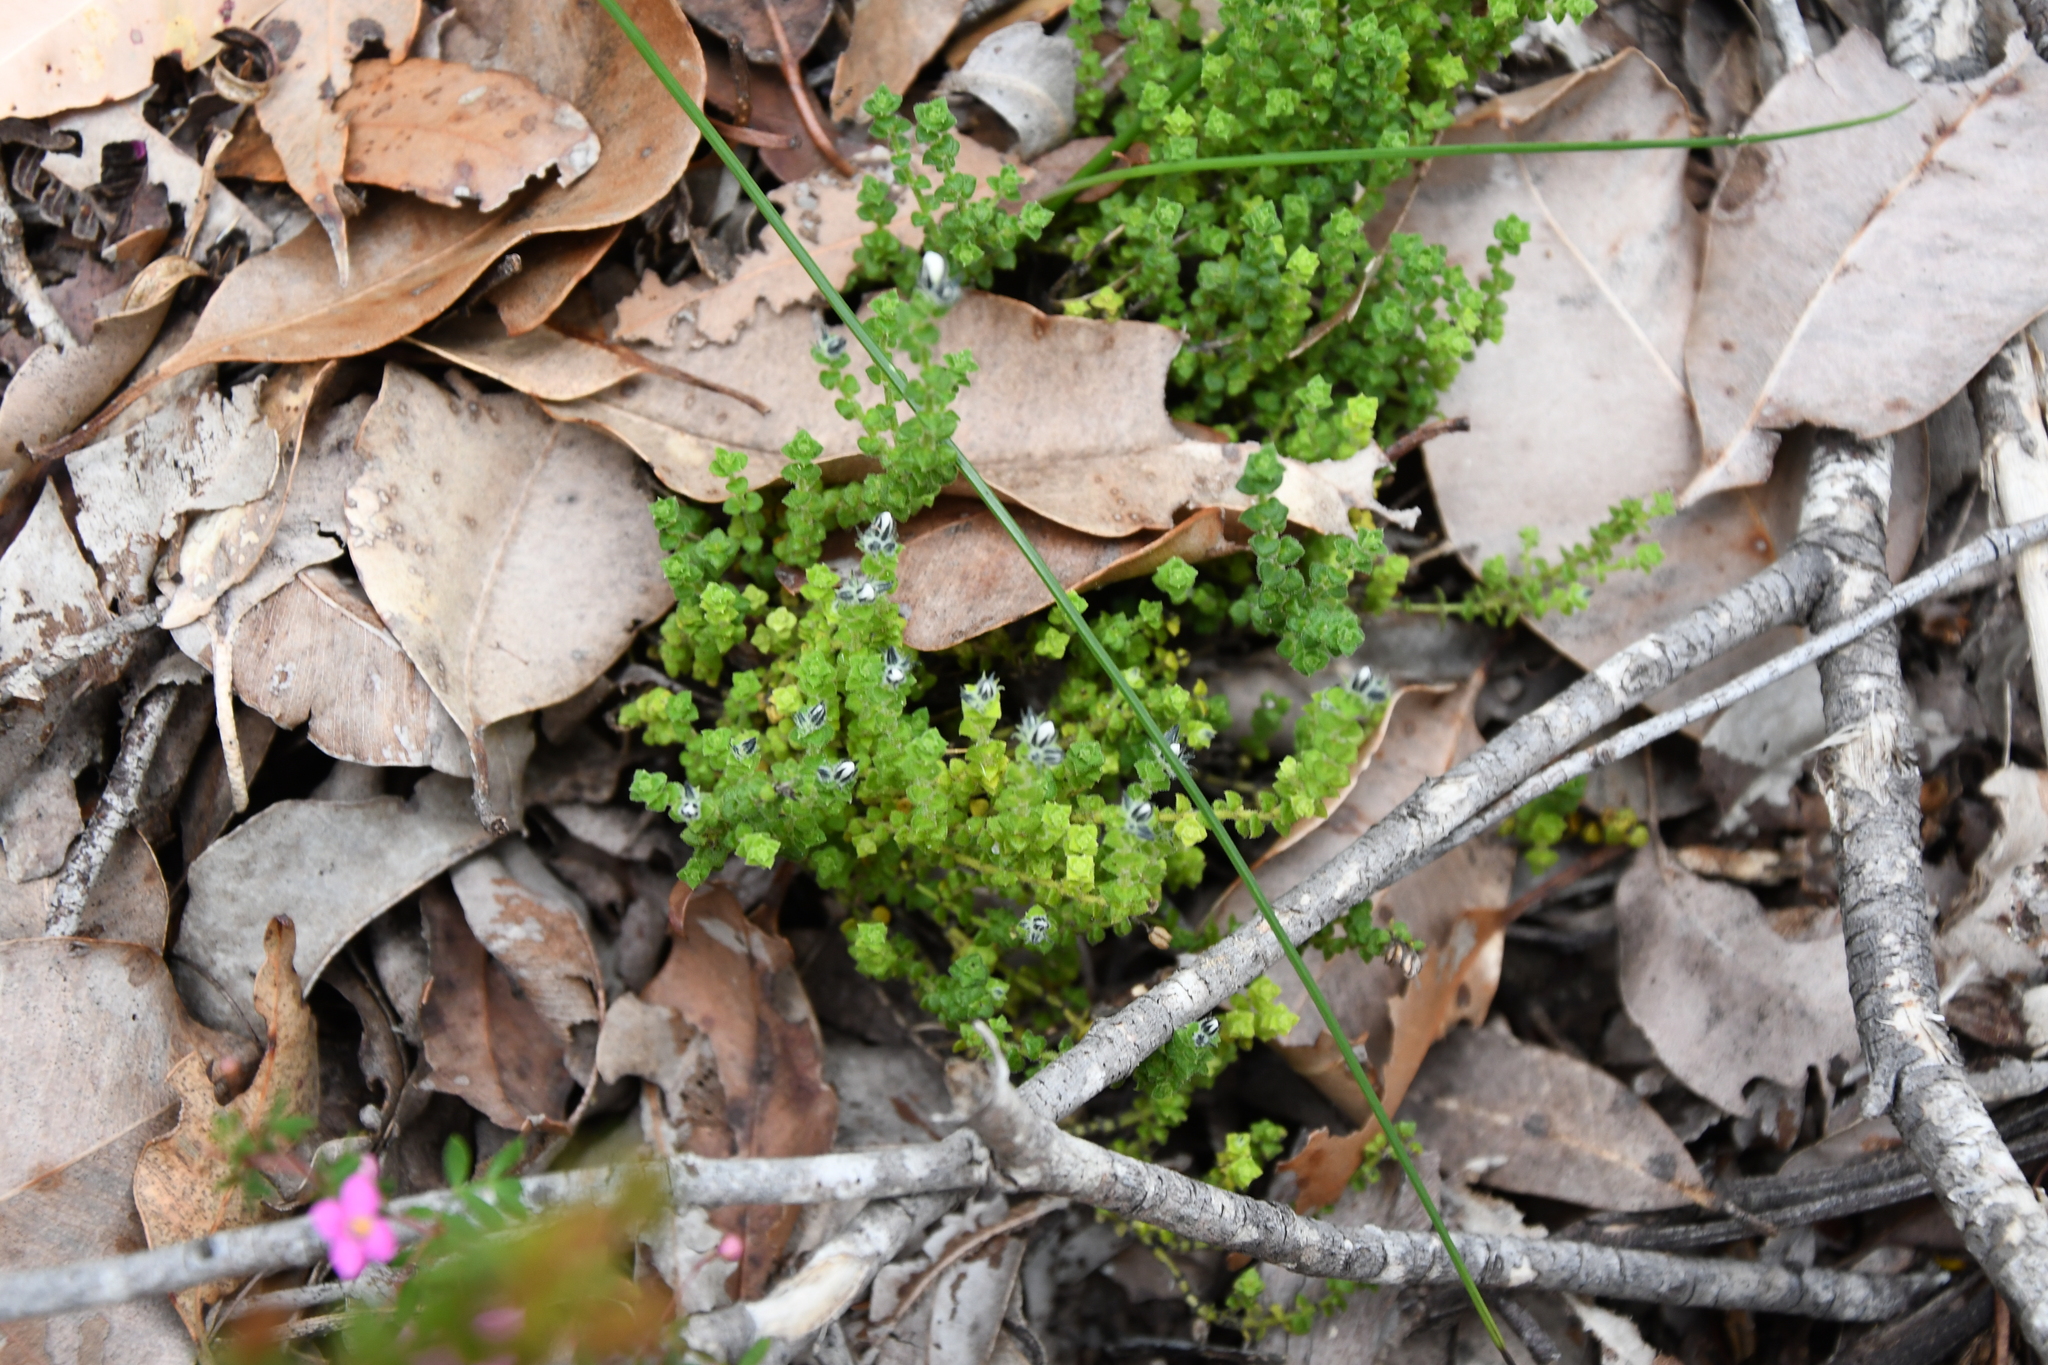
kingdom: Plantae
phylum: Tracheophyta
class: Magnoliopsida
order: Gentianales
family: Loganiaceae
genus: Orianthera
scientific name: Orianthera serpyllifolia
